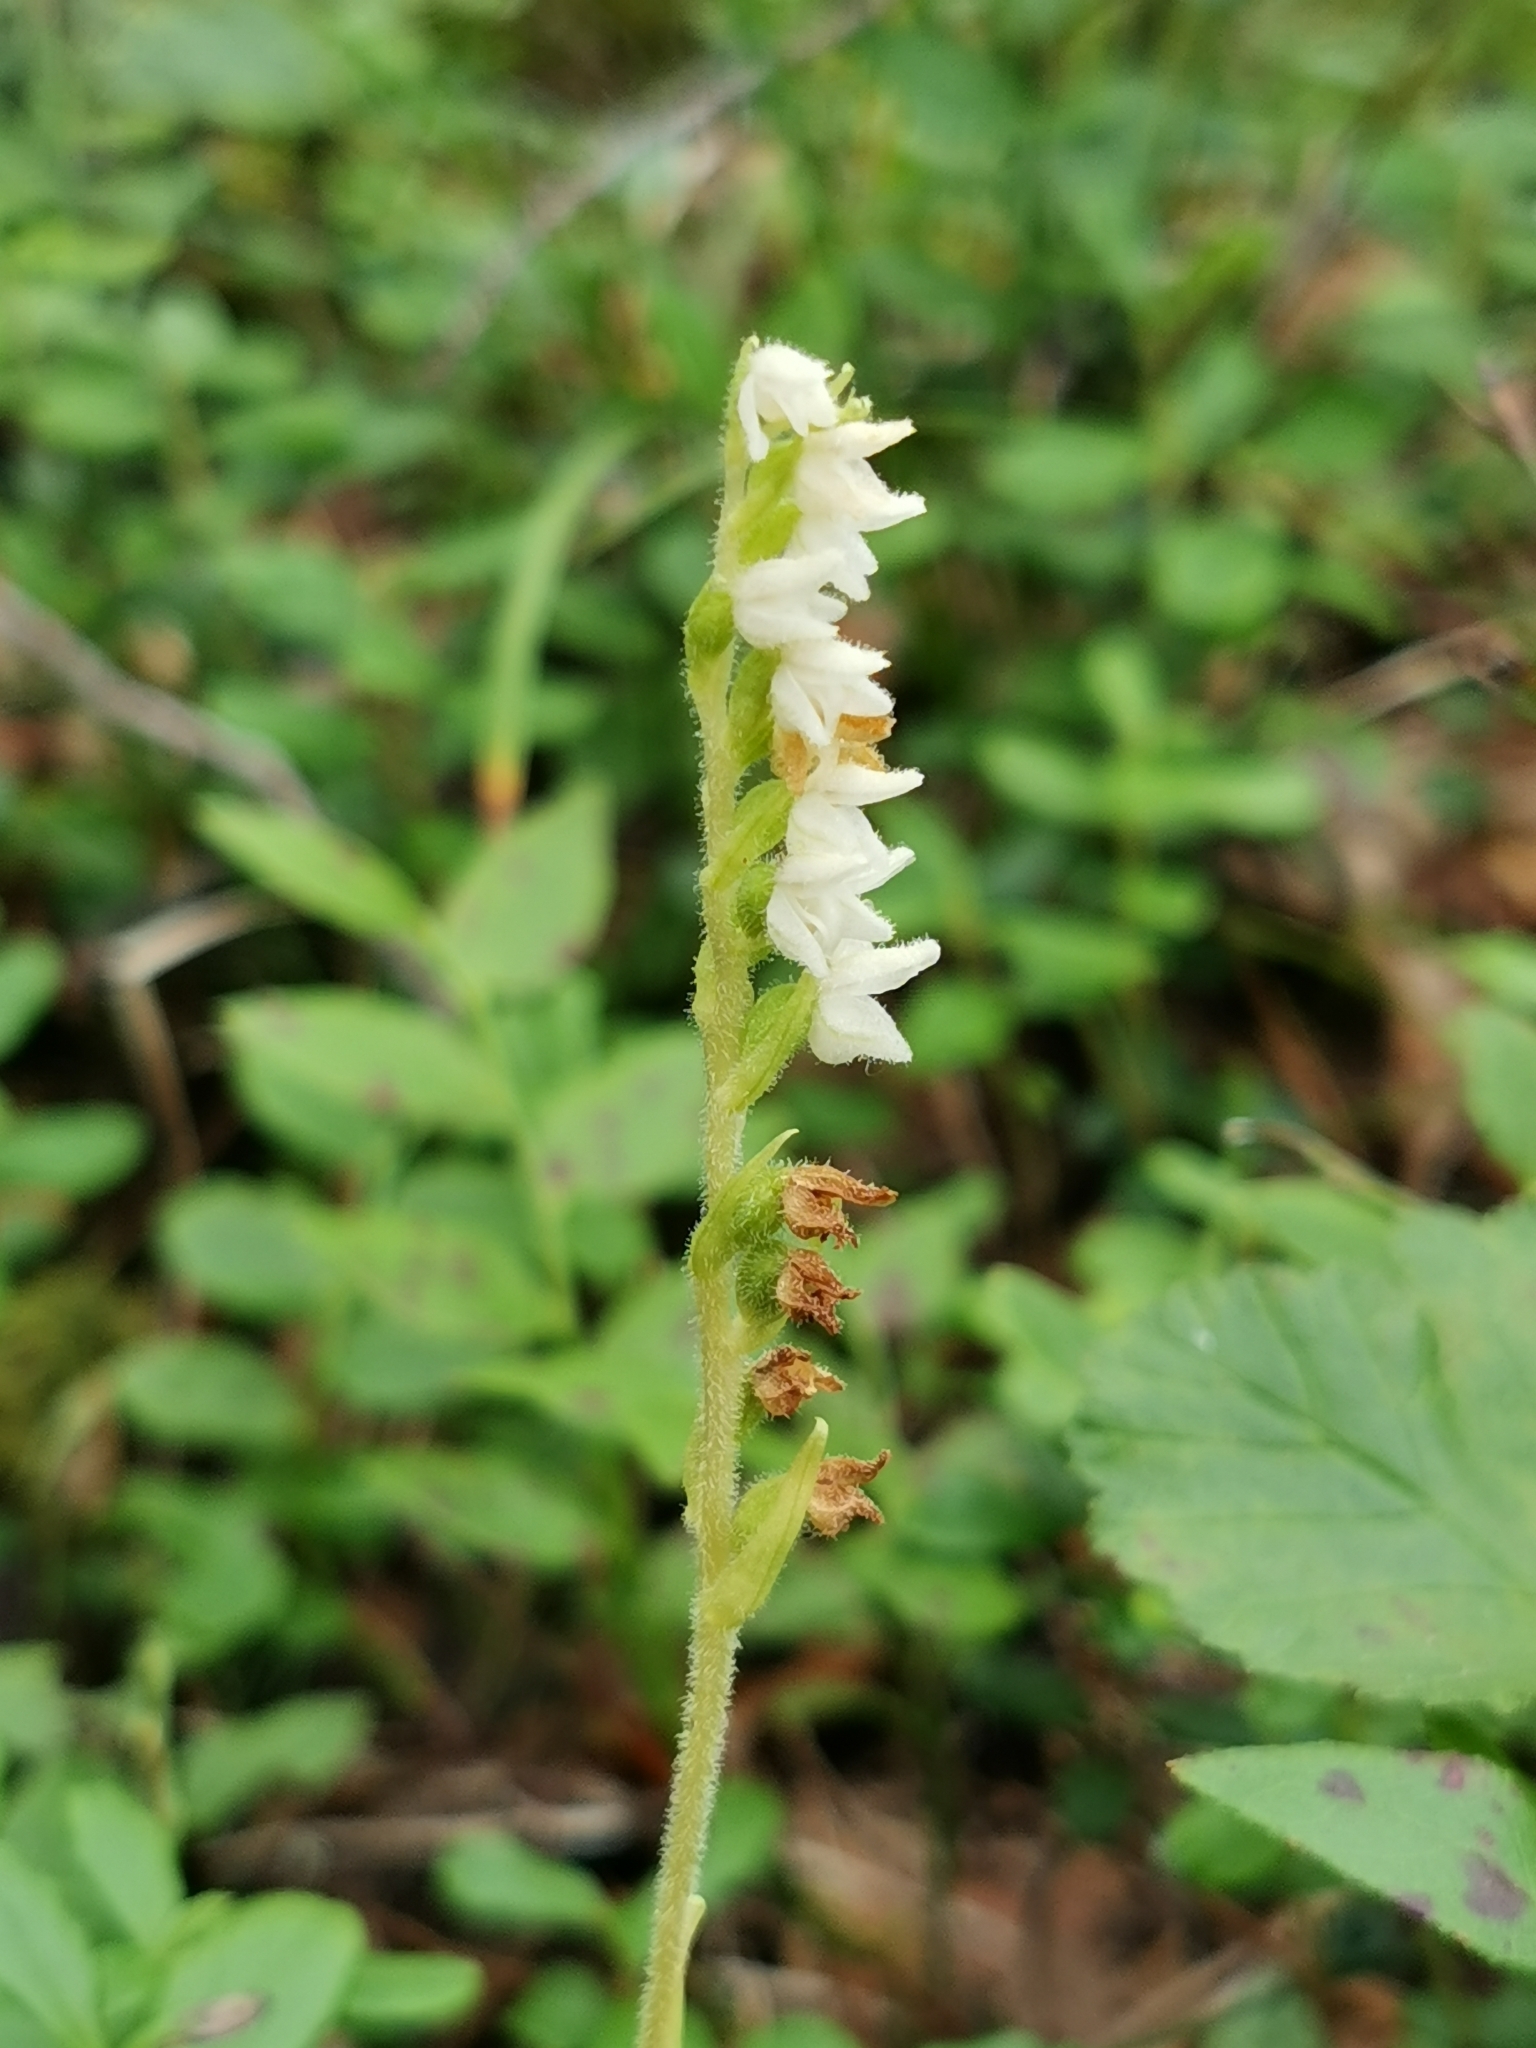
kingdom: Plantae
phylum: Tracheophyta
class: Liliopsida
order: Asparagales
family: Orchidaceae
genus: Goodyera
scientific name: Goodyera repens
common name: Creeping lady's-tresses
